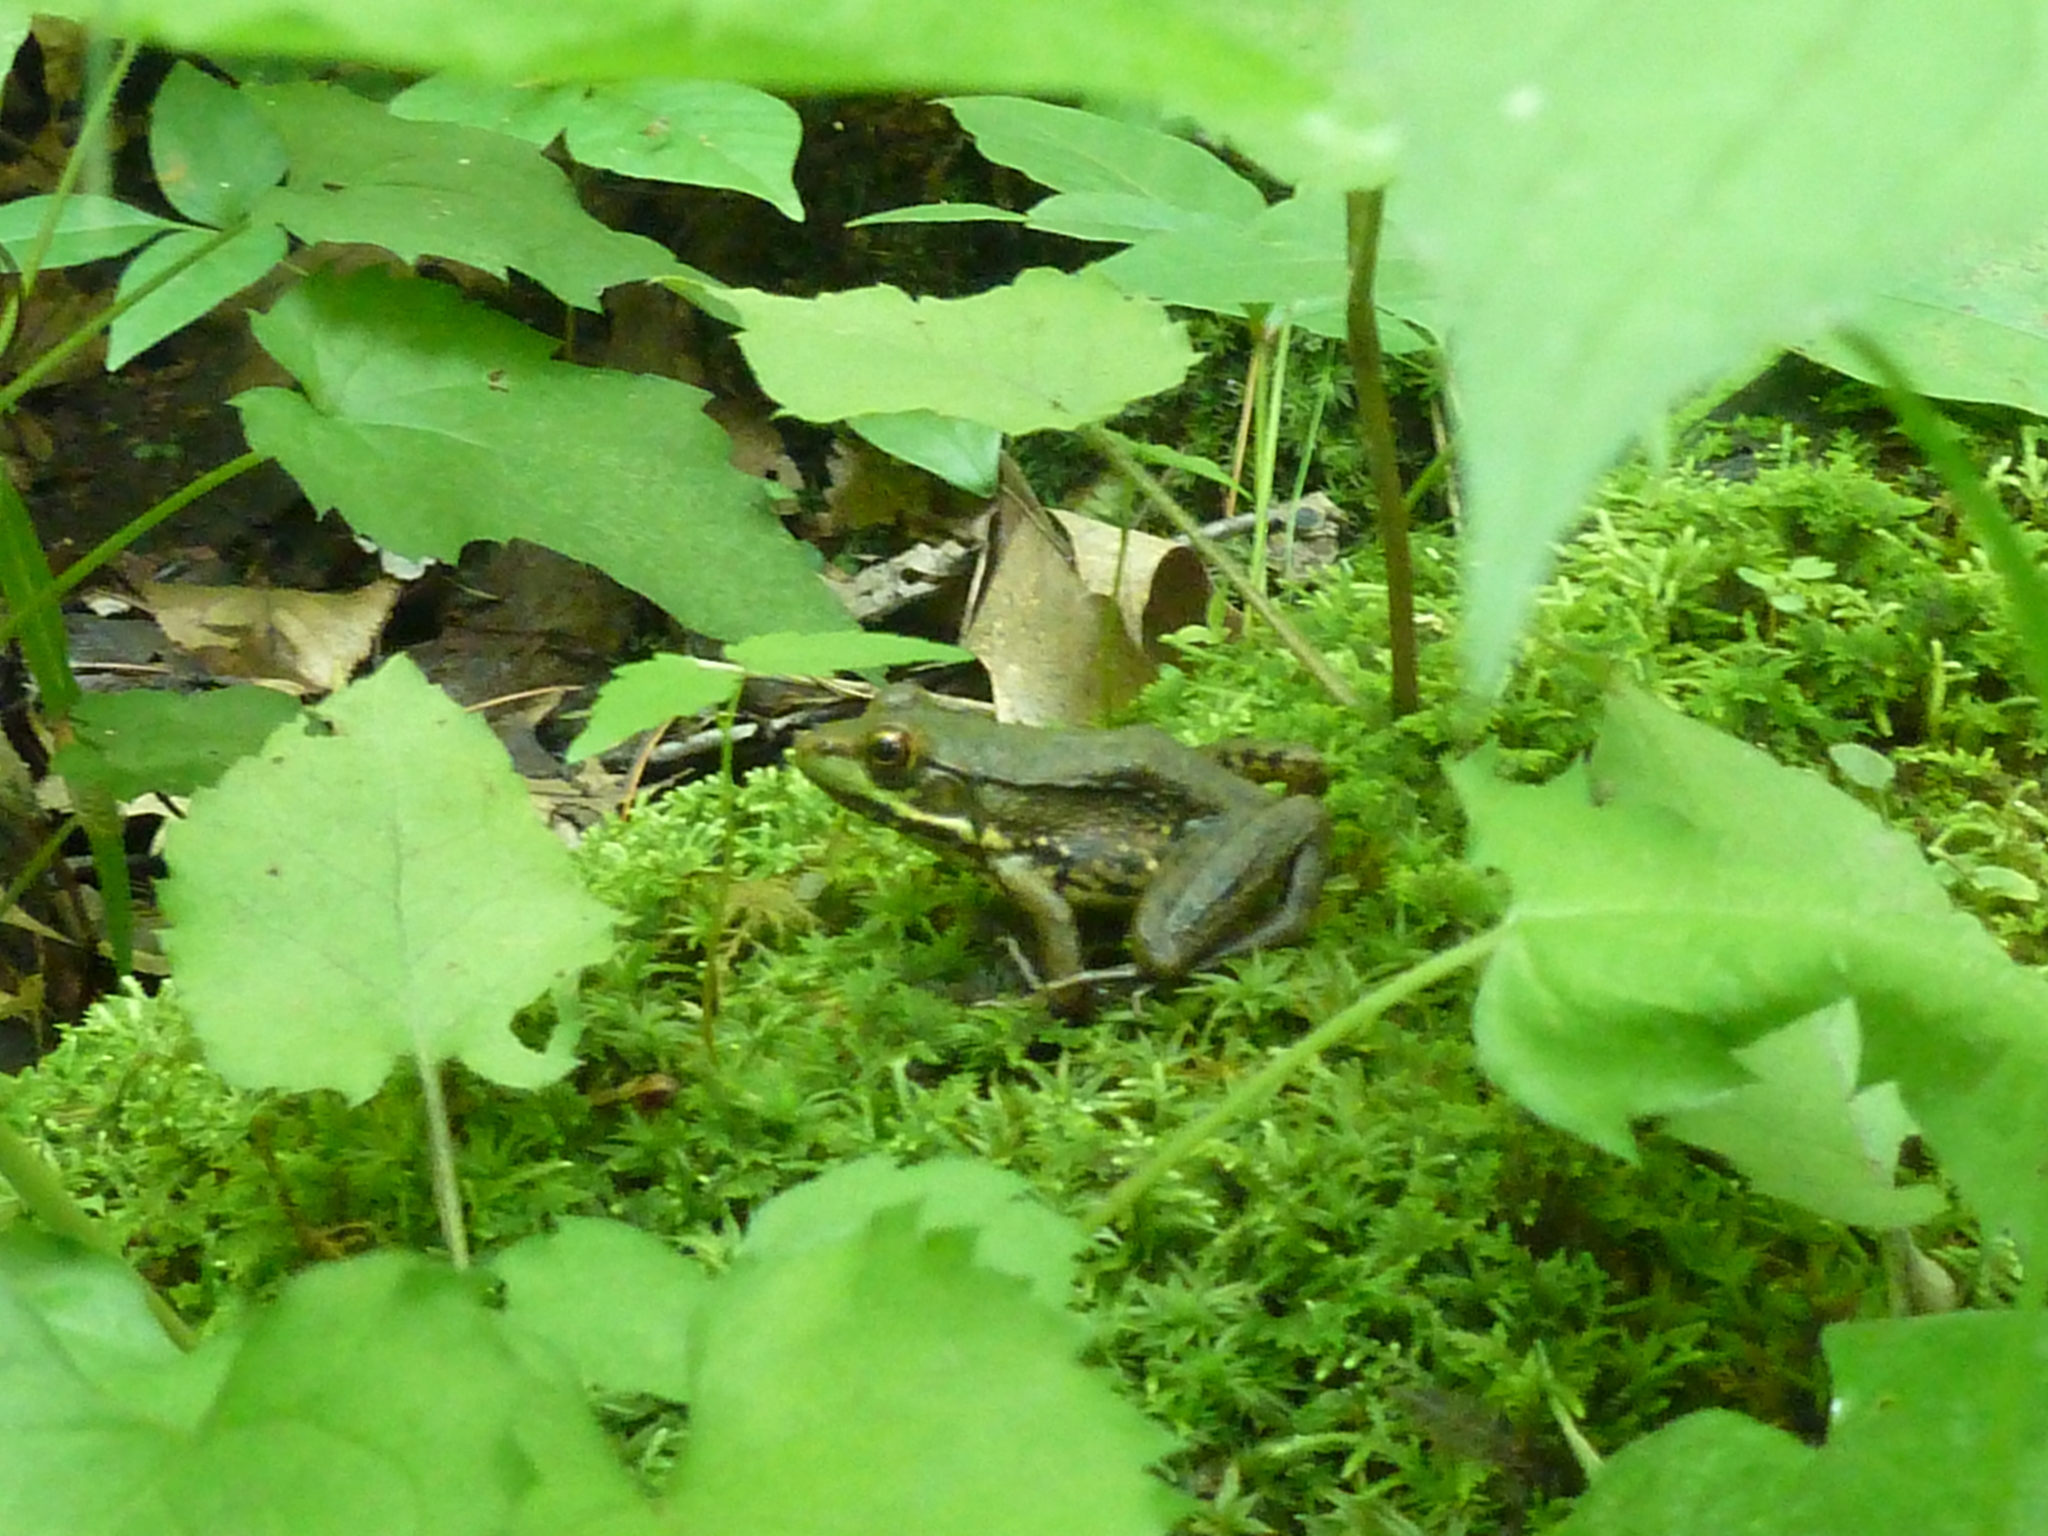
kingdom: Animalia
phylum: Chordata
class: Amphibia
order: Anura
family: Ranidae
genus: Lithobates
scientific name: Lithobates clamitans
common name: Green frog
